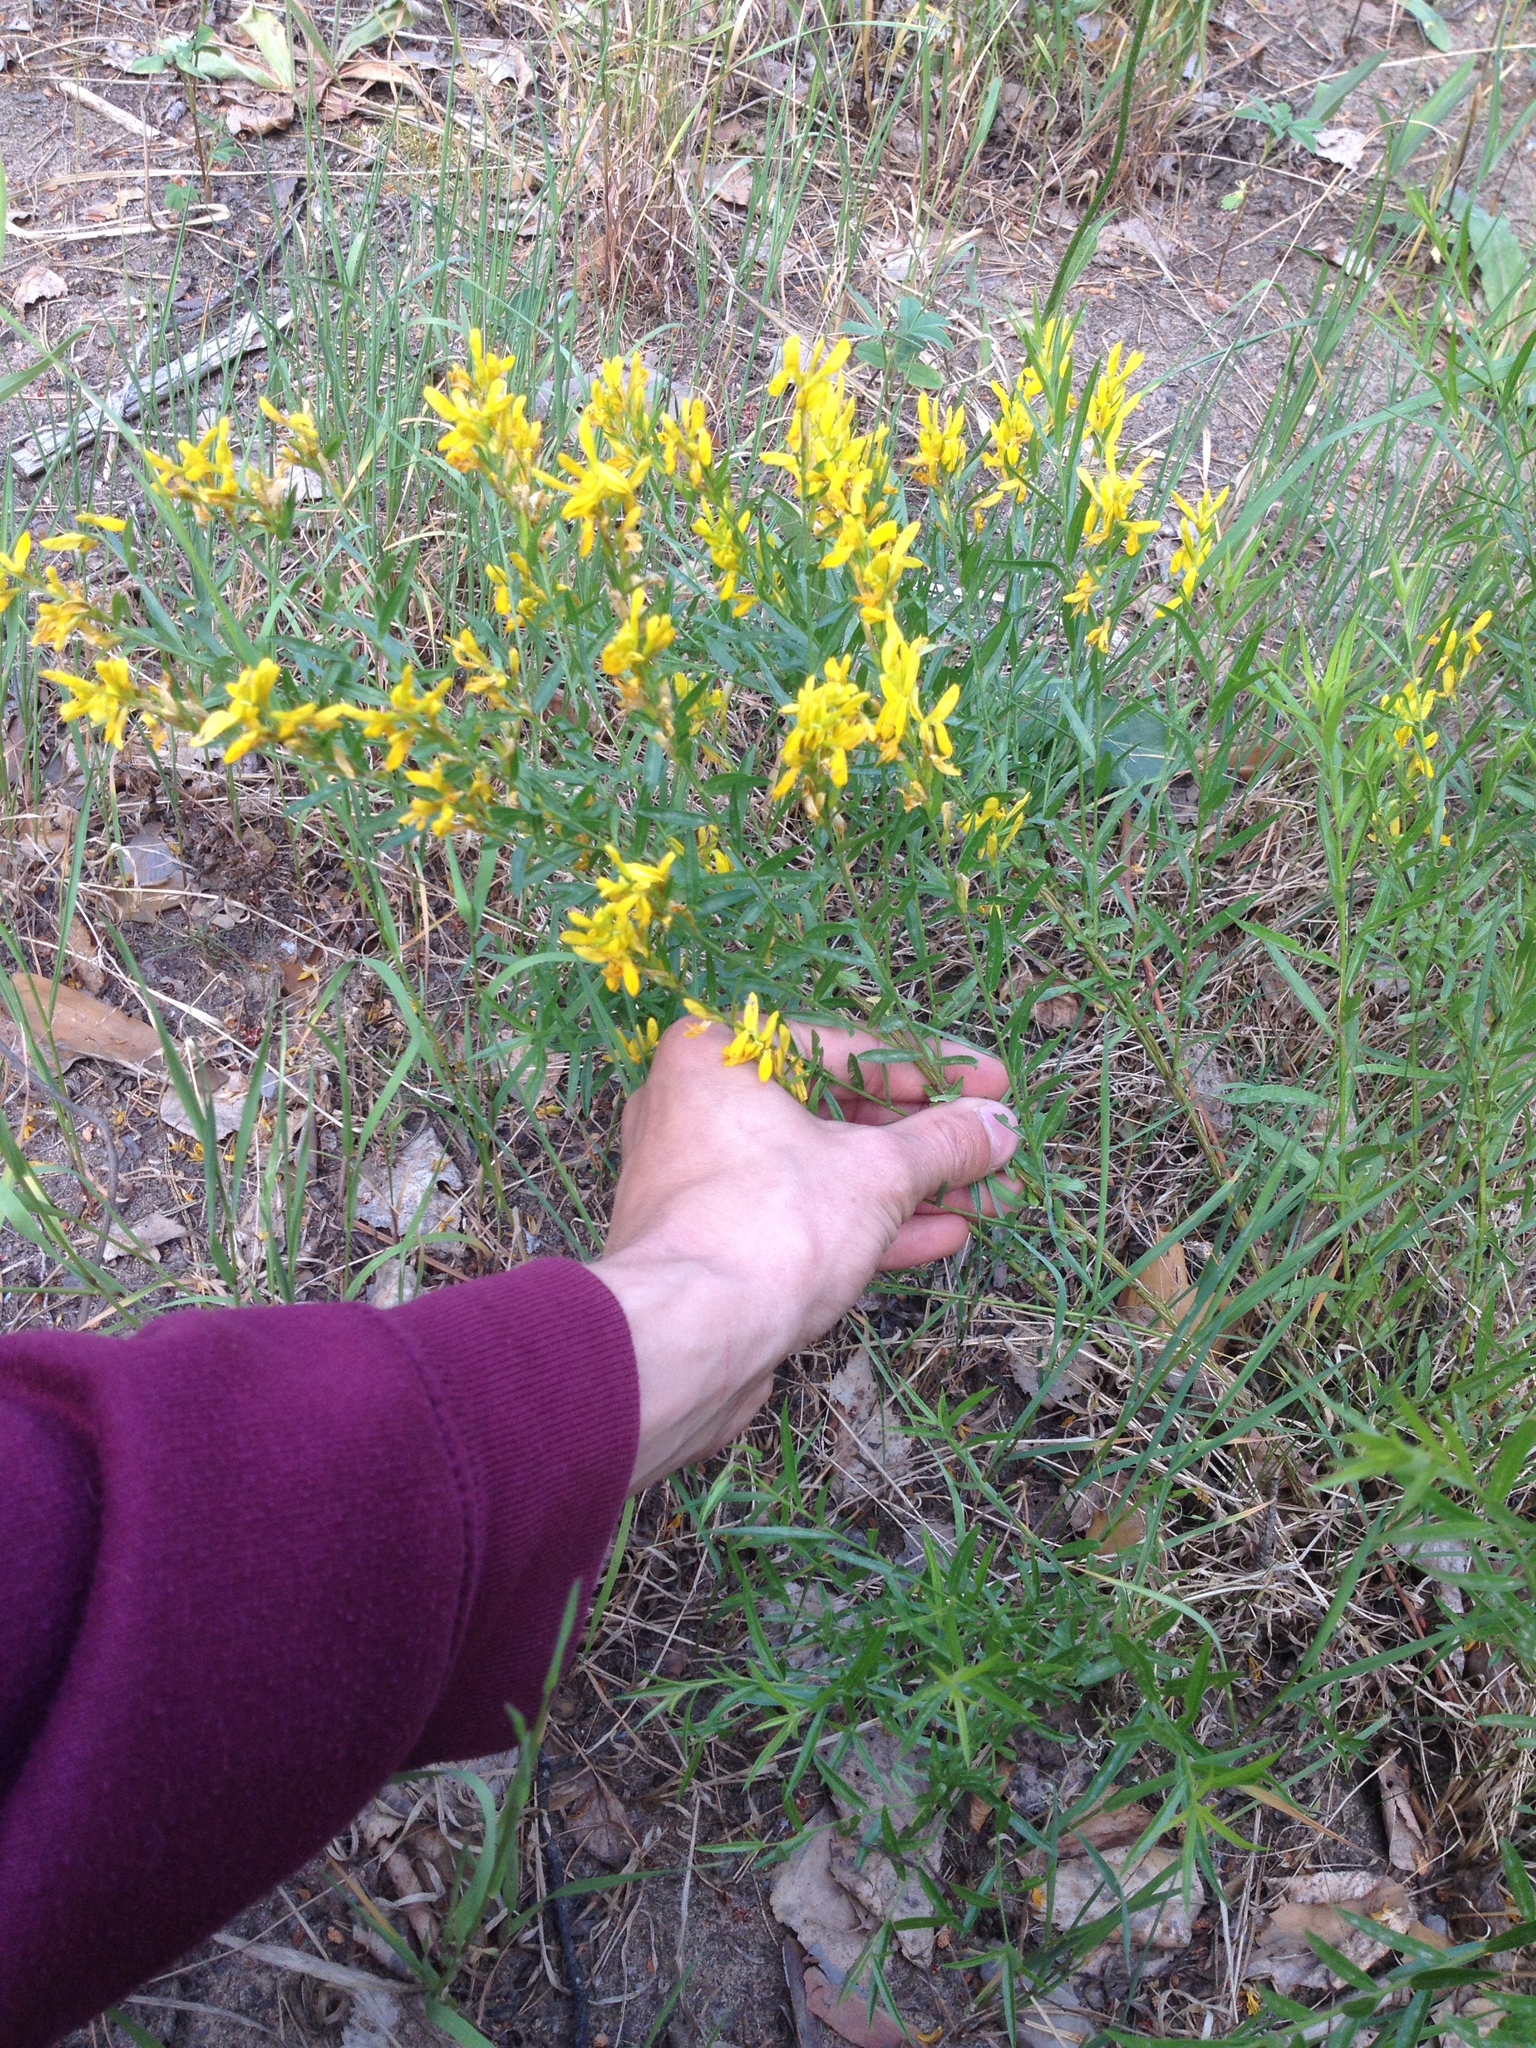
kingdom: Plantae
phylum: Tracheophyta
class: Magnoliopsida
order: Fabales
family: Fabaceae
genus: Genista
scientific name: Genista tinctoria
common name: Dyer's greenweed
